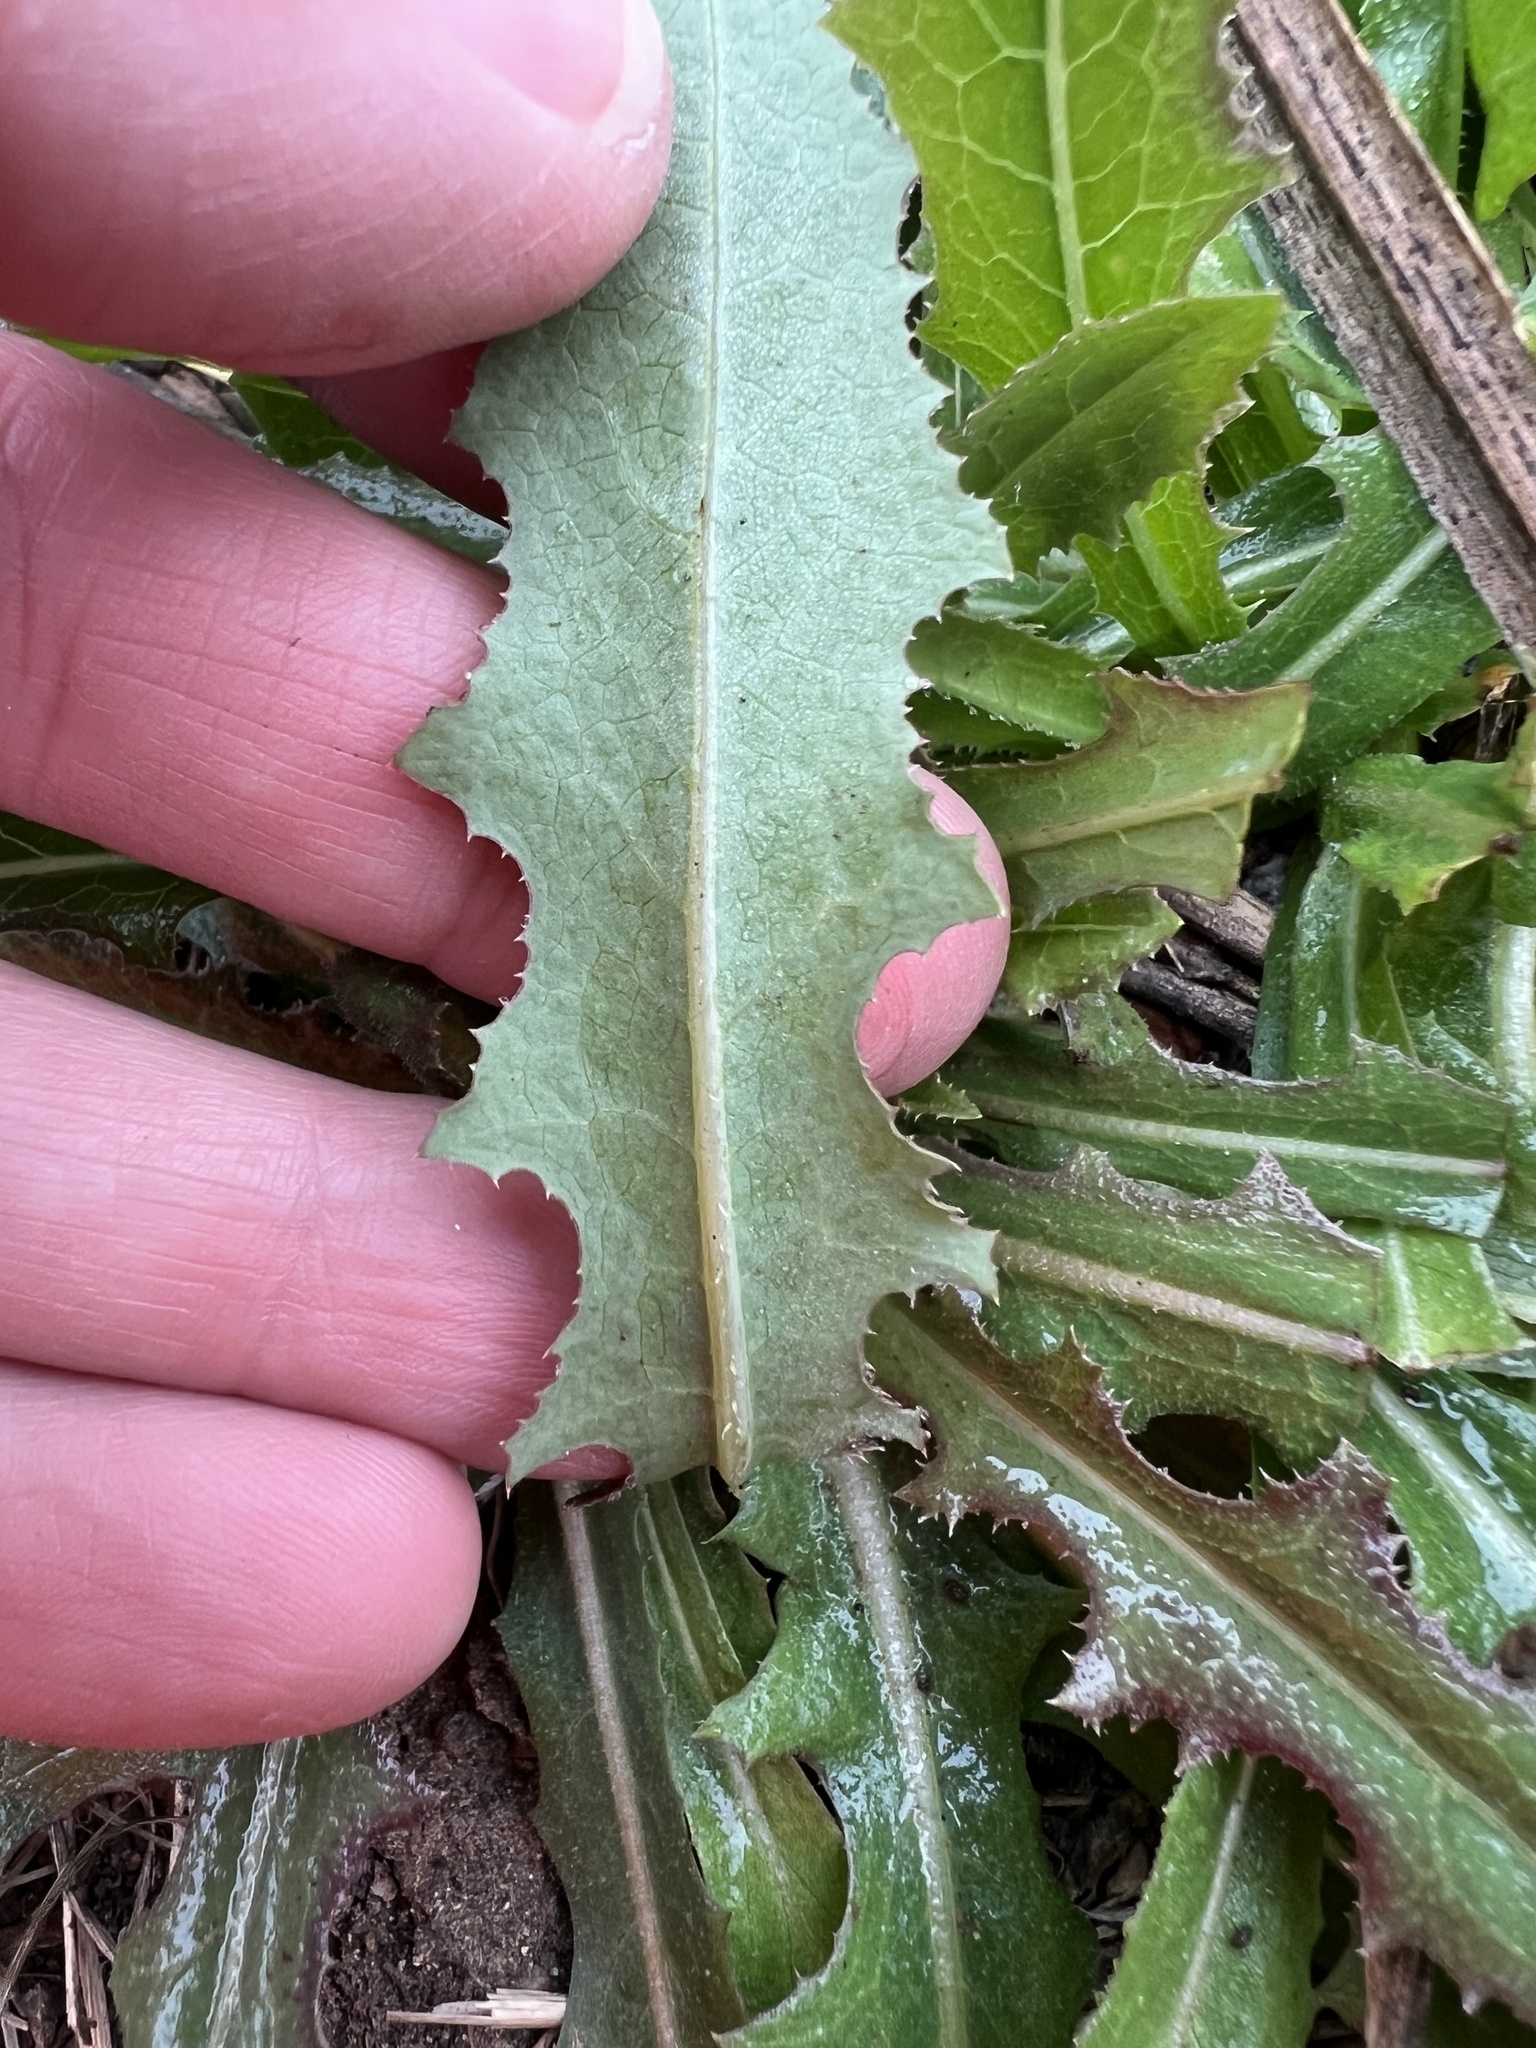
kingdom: Plantae
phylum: Tracheophyta
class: Magnoliopsida
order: Asterales
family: Asteraceae
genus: Lactuca
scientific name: Lactuca serriola
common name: Prickly lettuce
